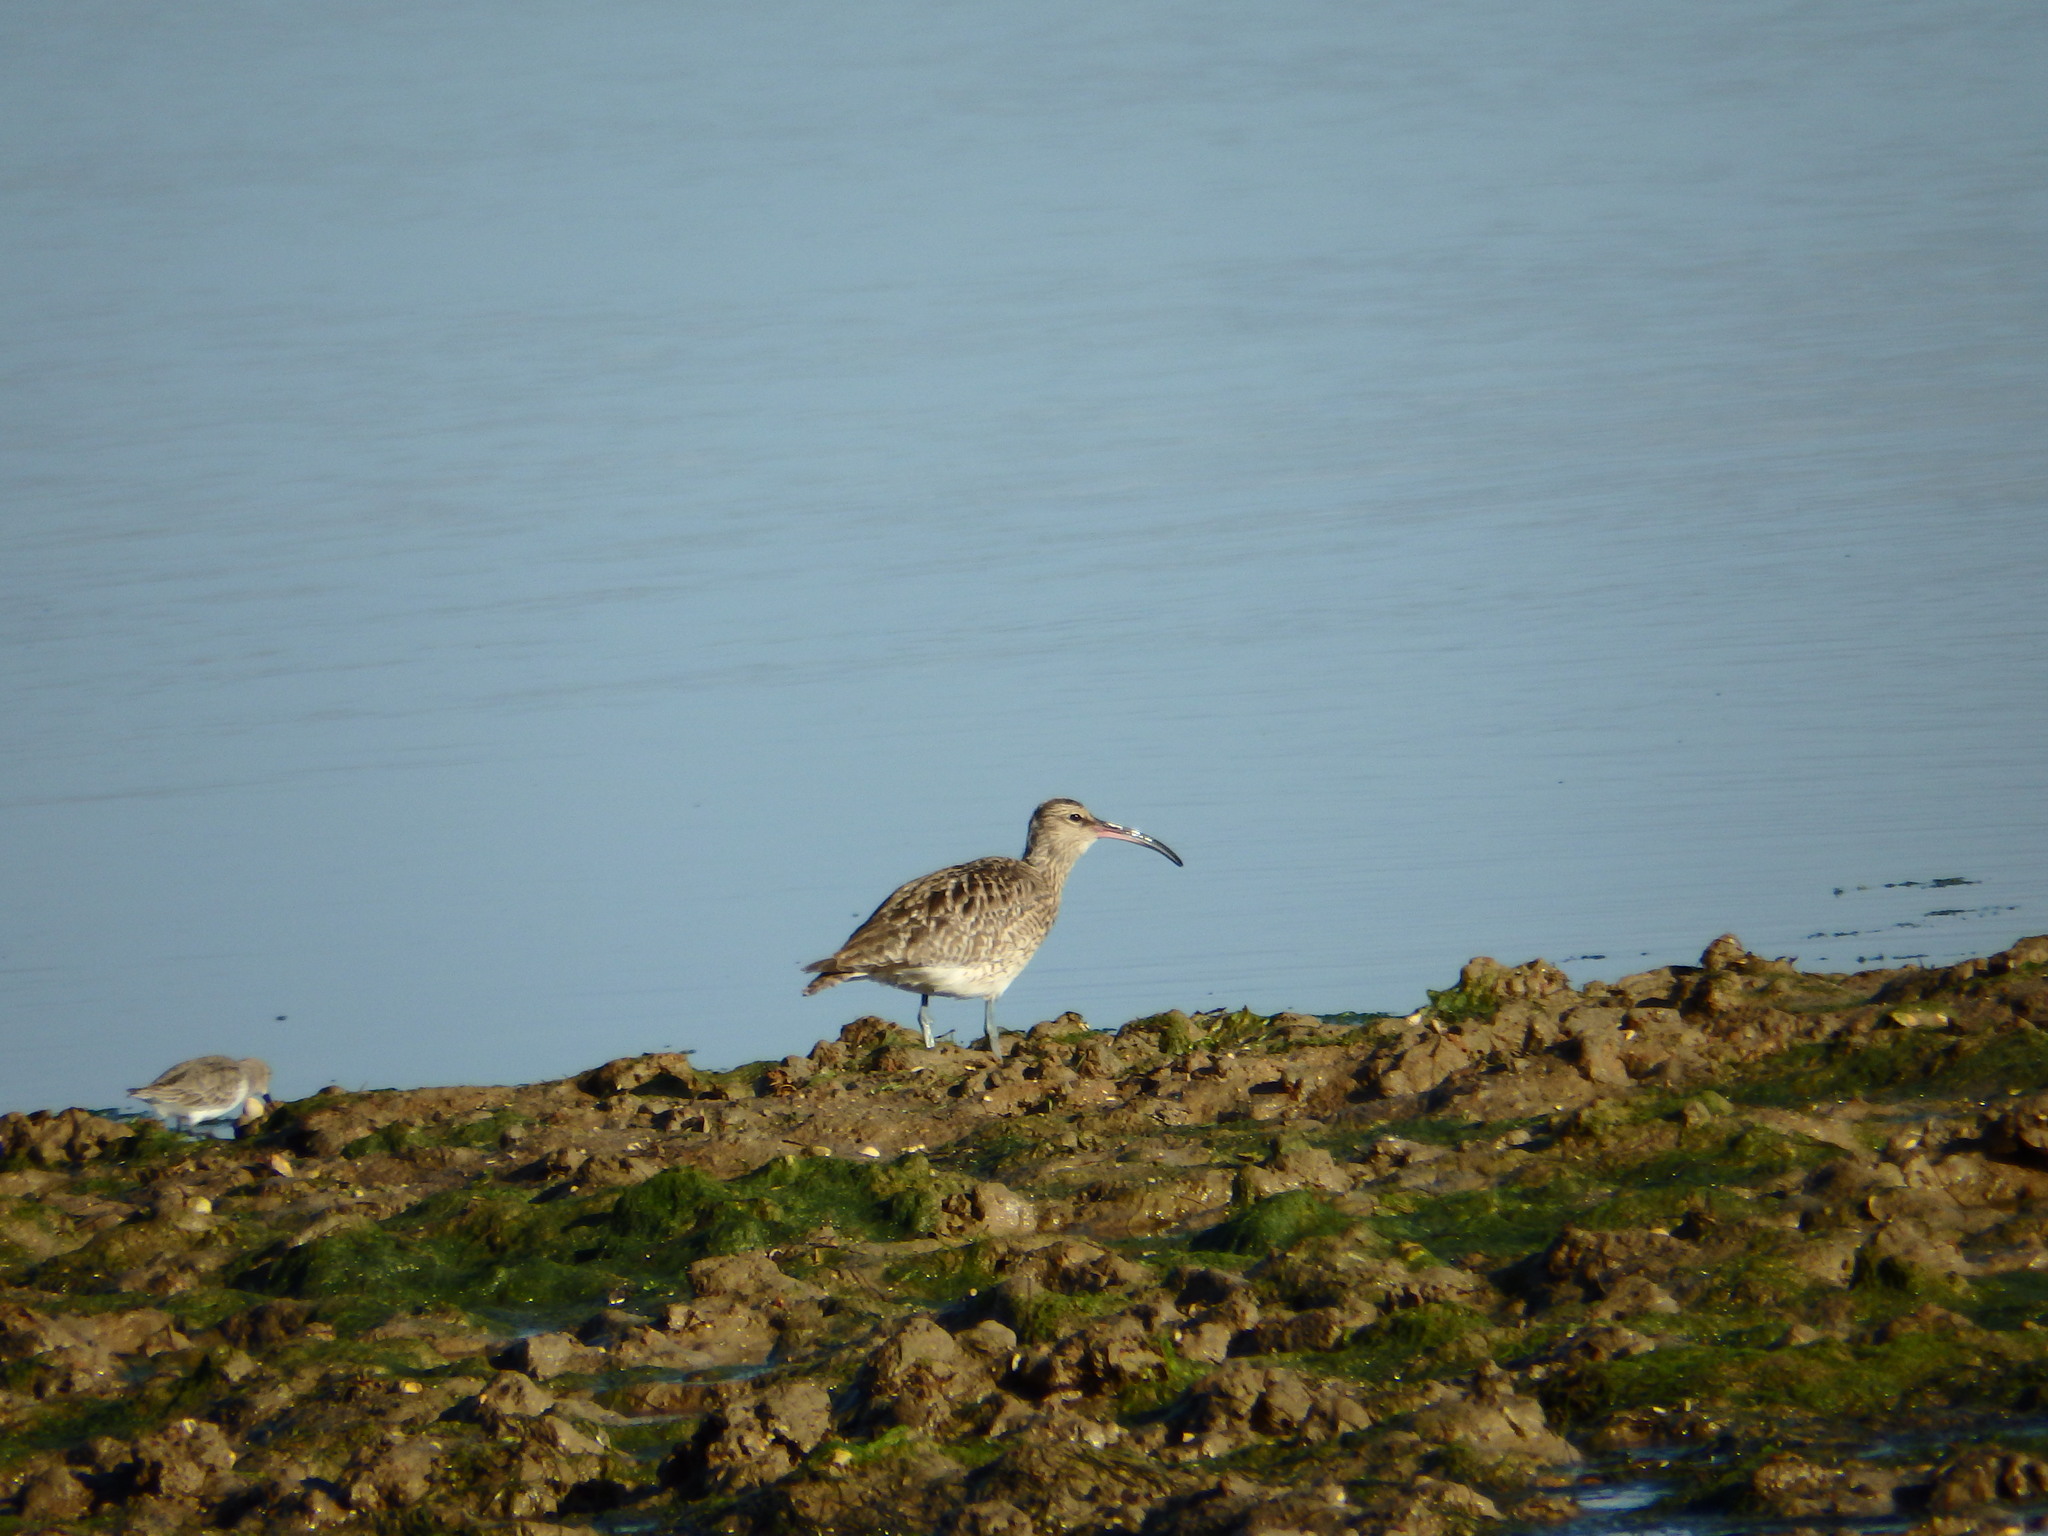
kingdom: Animalia
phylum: Chordata
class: Aves
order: Charadriiformes
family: Scolopacidae
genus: Numenius
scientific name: Numenius phaeopus
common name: Whimbrel
